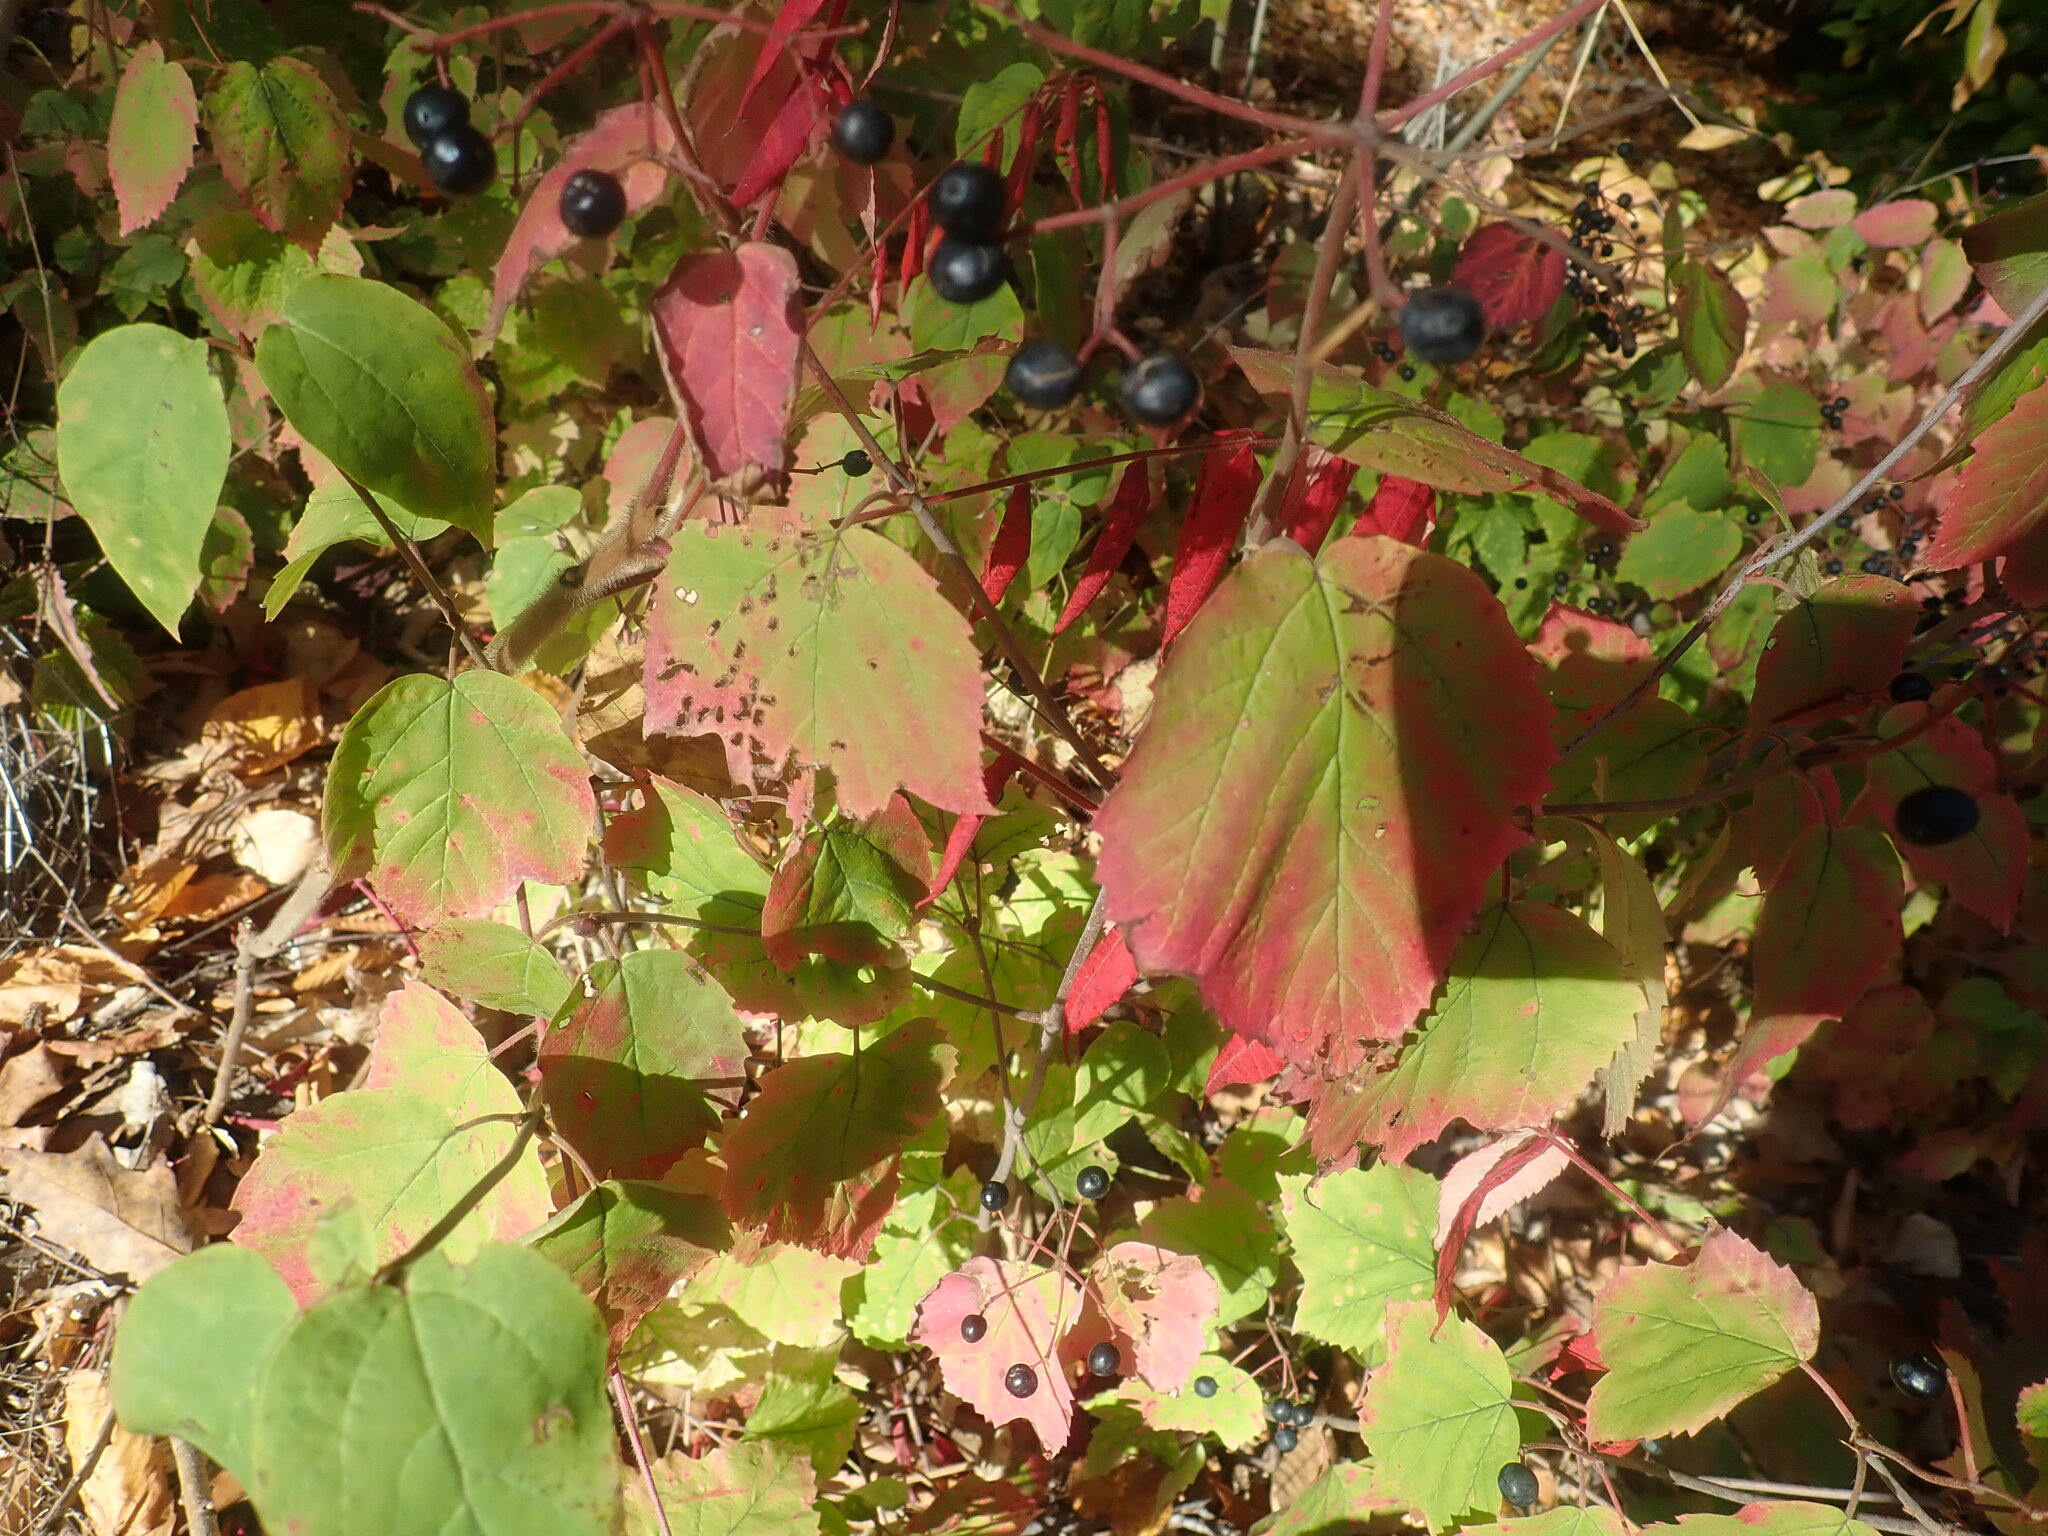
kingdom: Plantae
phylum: Tracheophyta
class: Magnoliopsida
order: Dipsacales
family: Viburnaceae
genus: Viburnum
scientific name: Viburnum acerifolium
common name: Dockmackie
